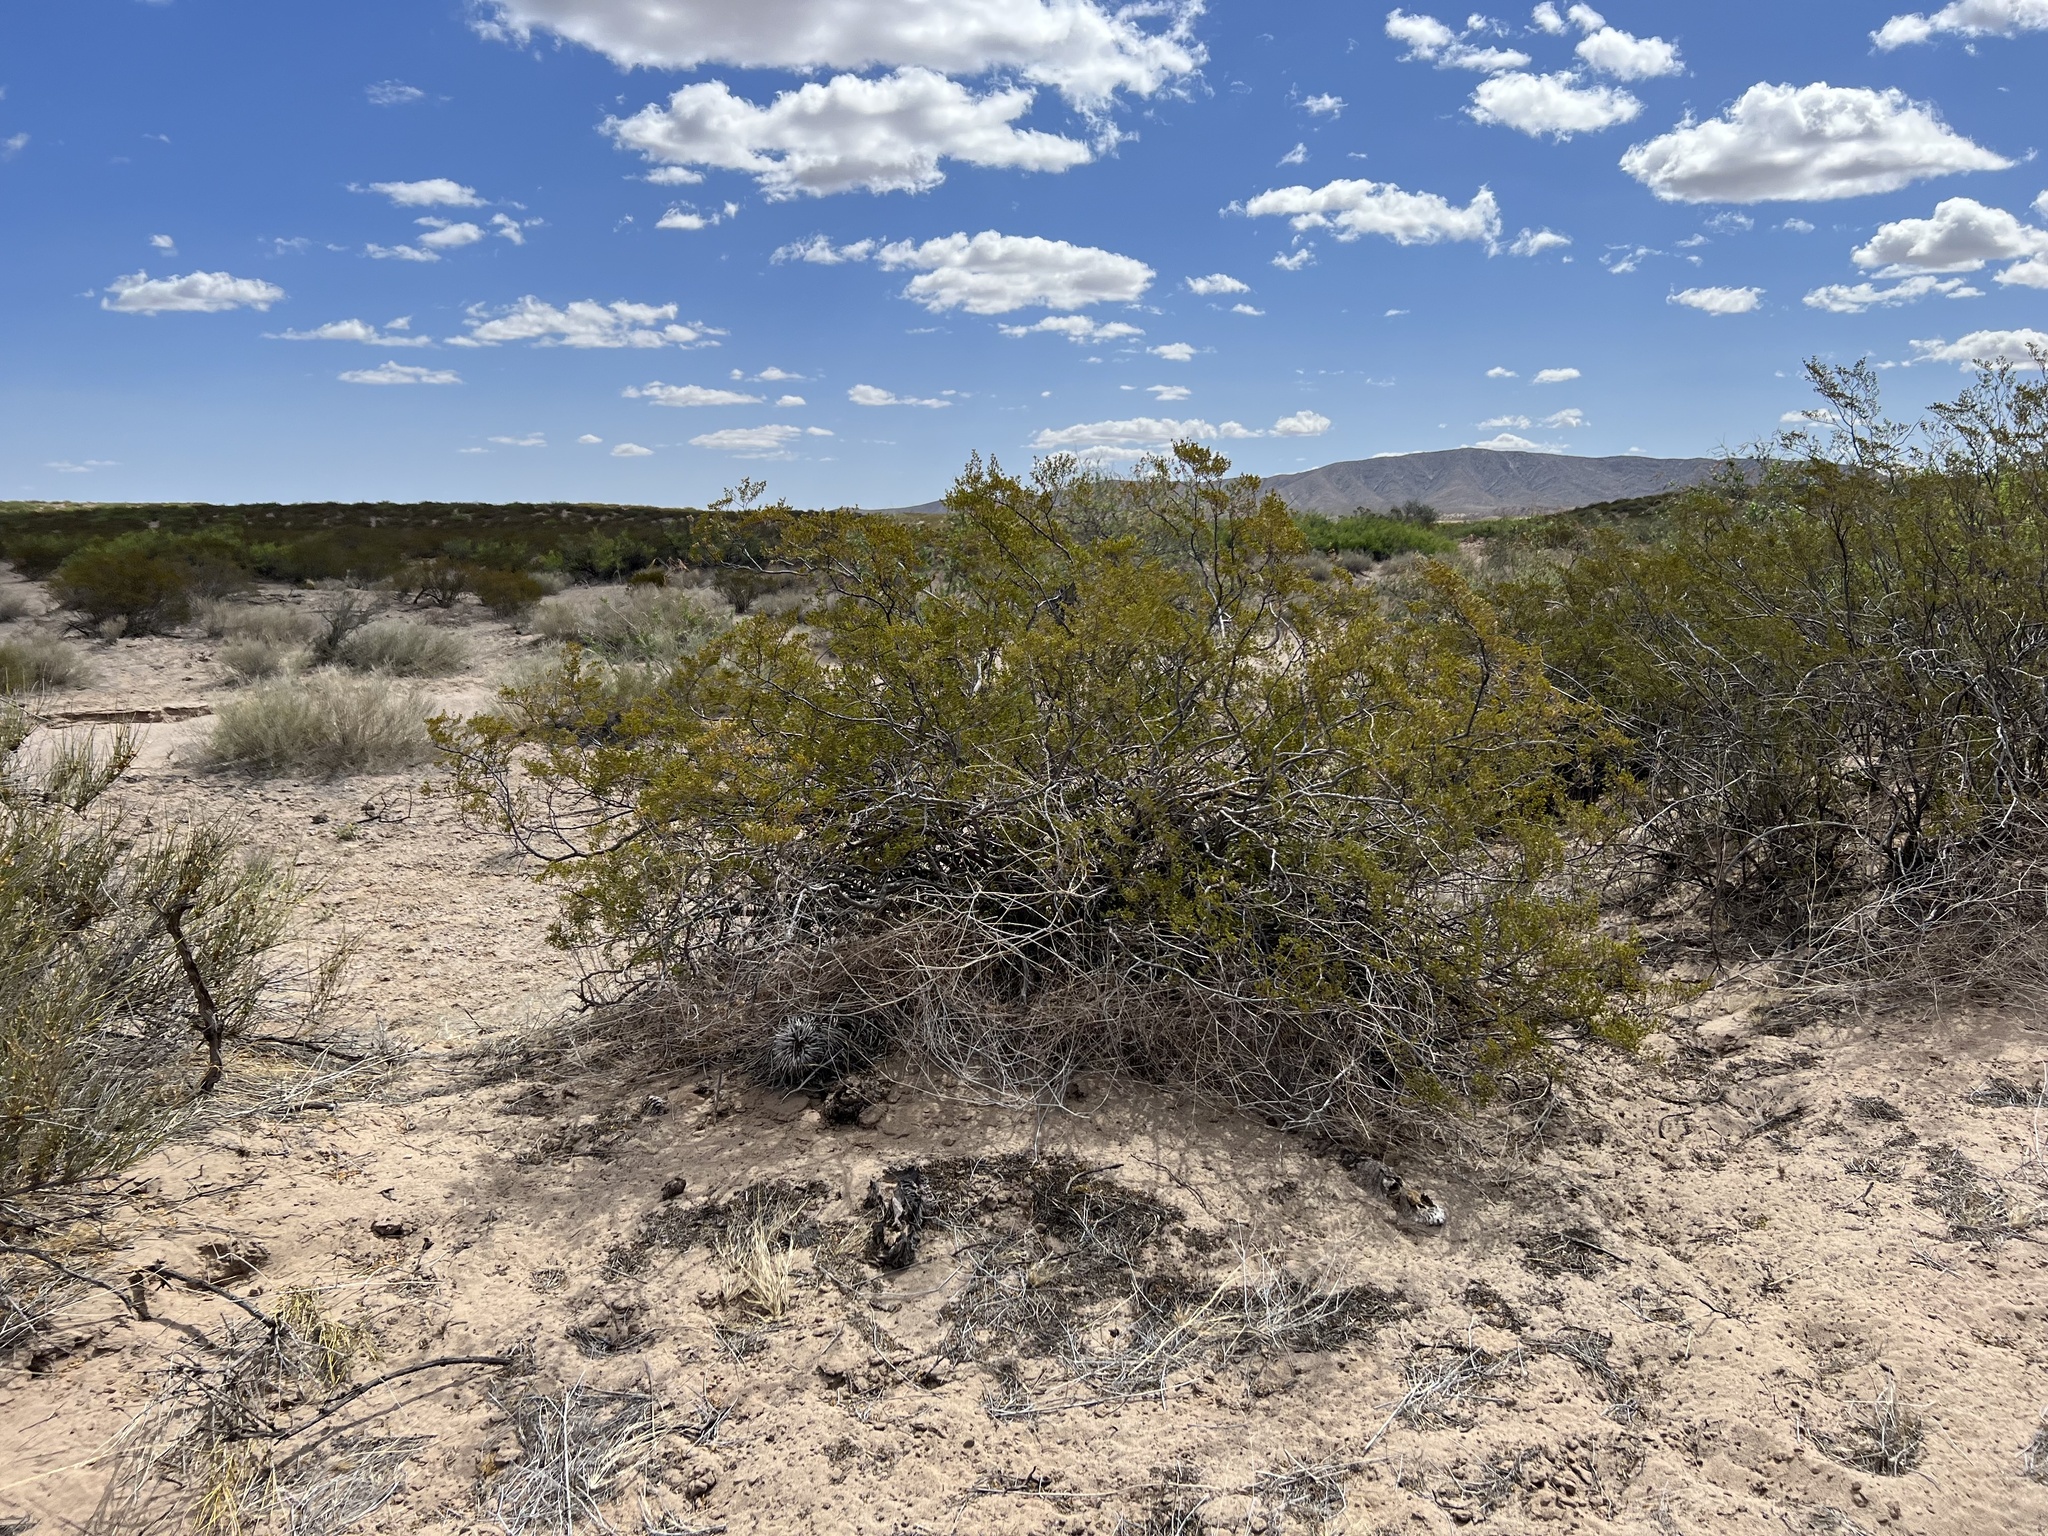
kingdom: Plantae
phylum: Tracheophyta
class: Magnoliopsida
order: Zygophyllales
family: Zygophyllaceae
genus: Larrea
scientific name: Larrea tridentata
